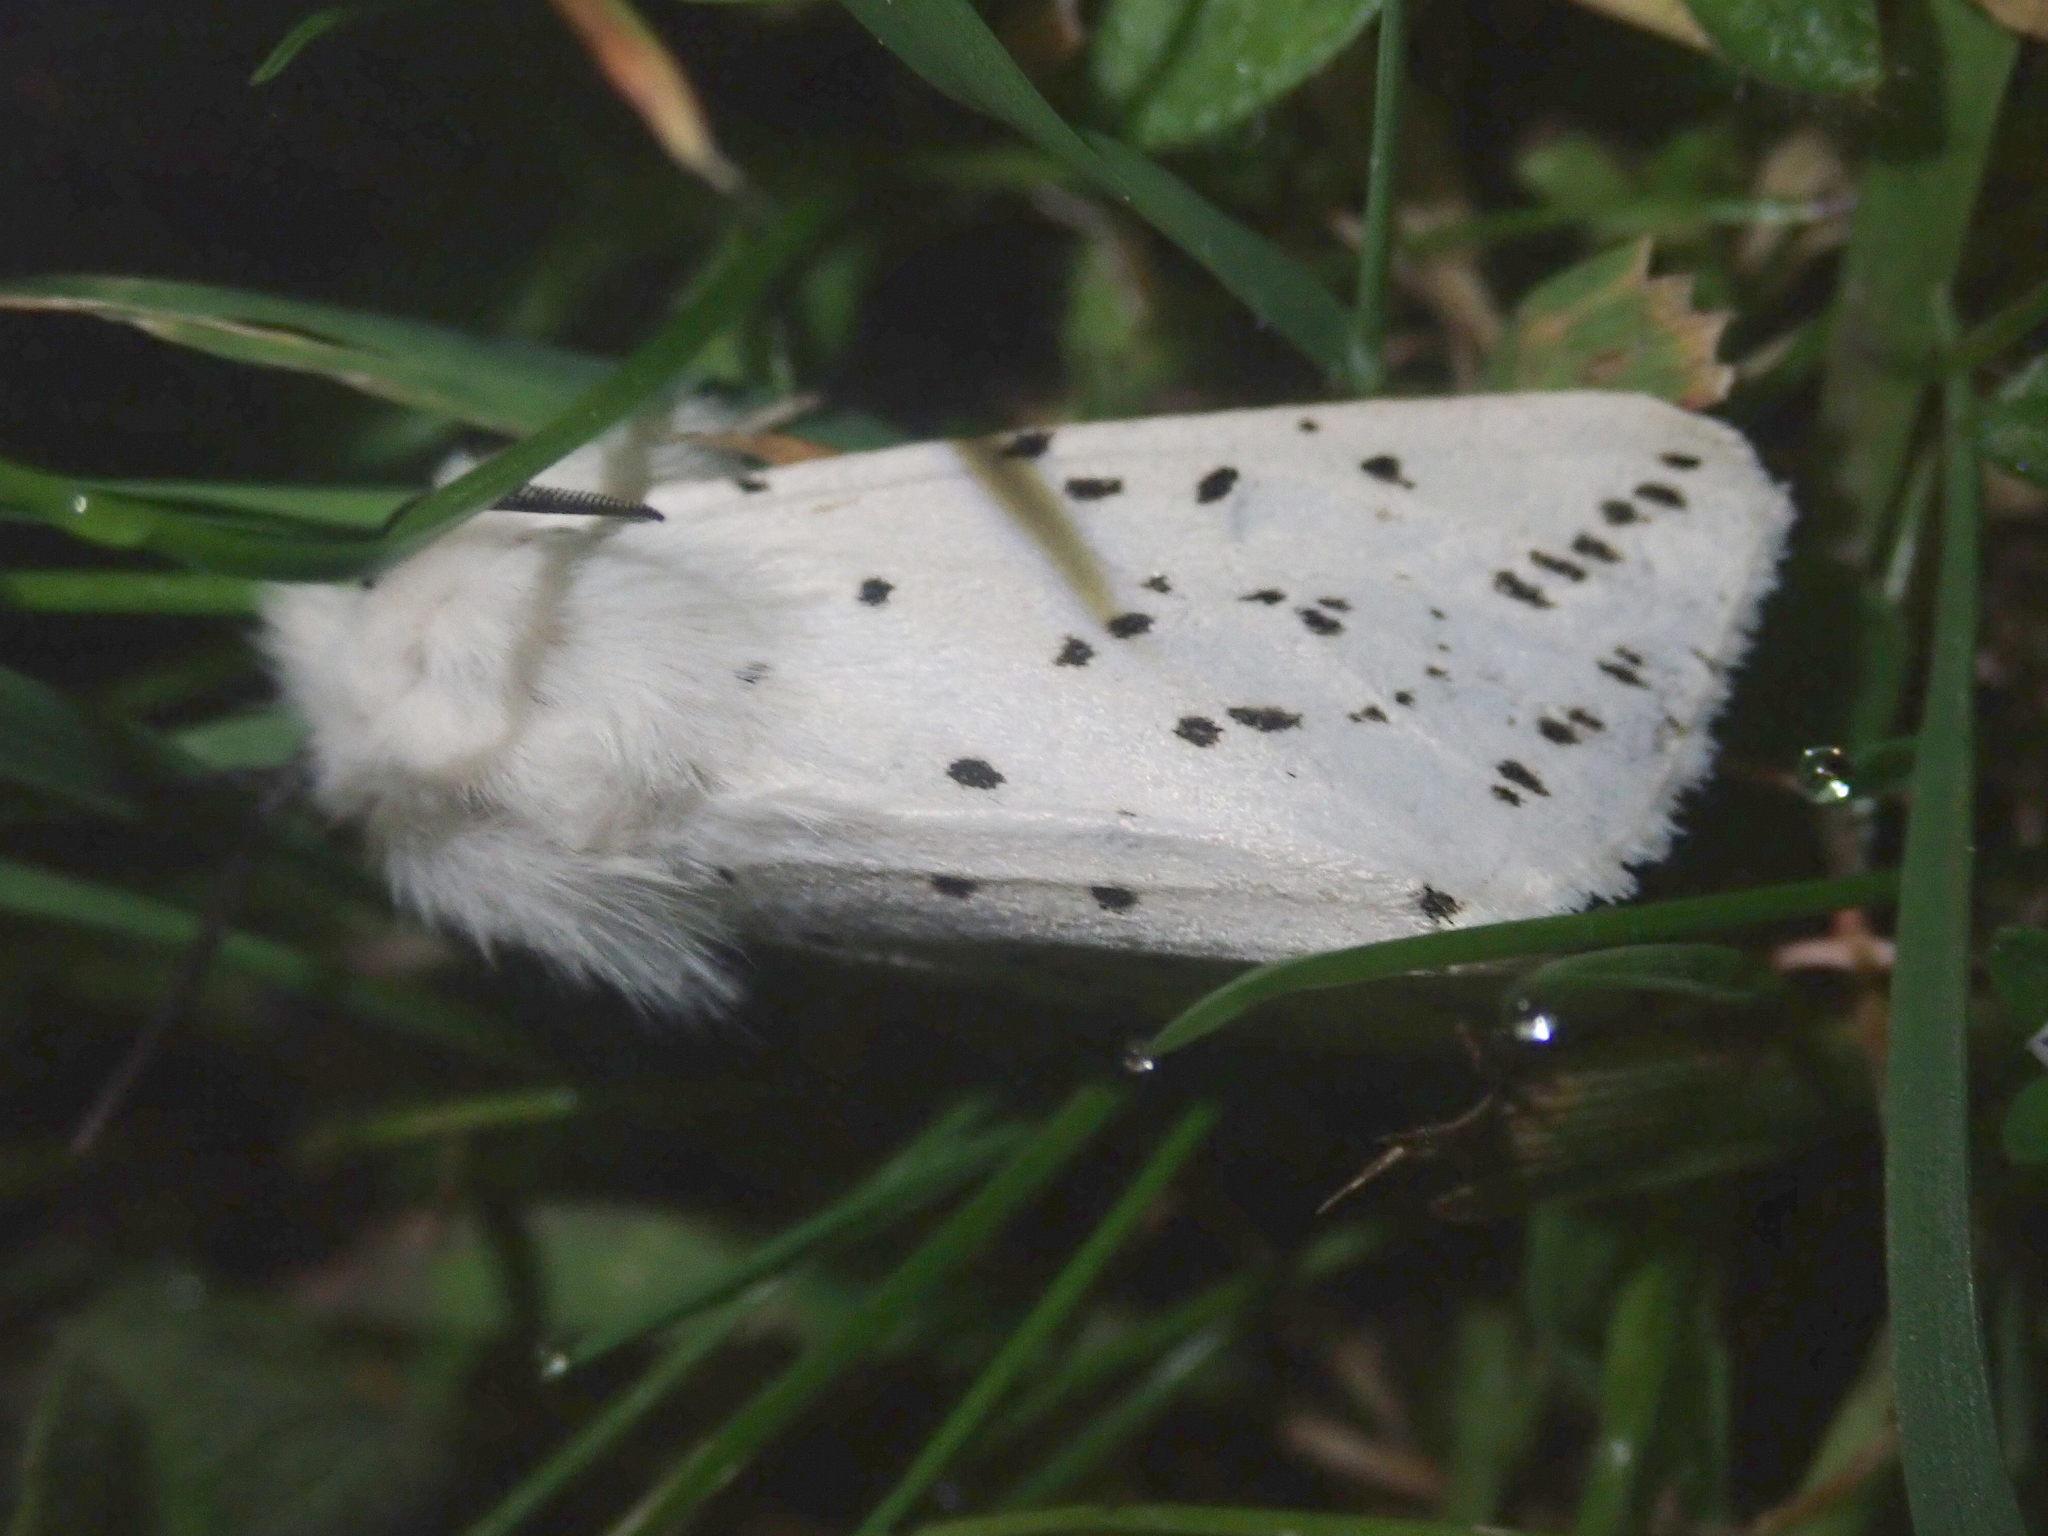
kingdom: Animalia
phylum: Arthropoda
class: Insecta
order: Lepidoptera
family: Erebidae
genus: Spilosoma
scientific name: Spilosoma lubricipeda
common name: White ermine
